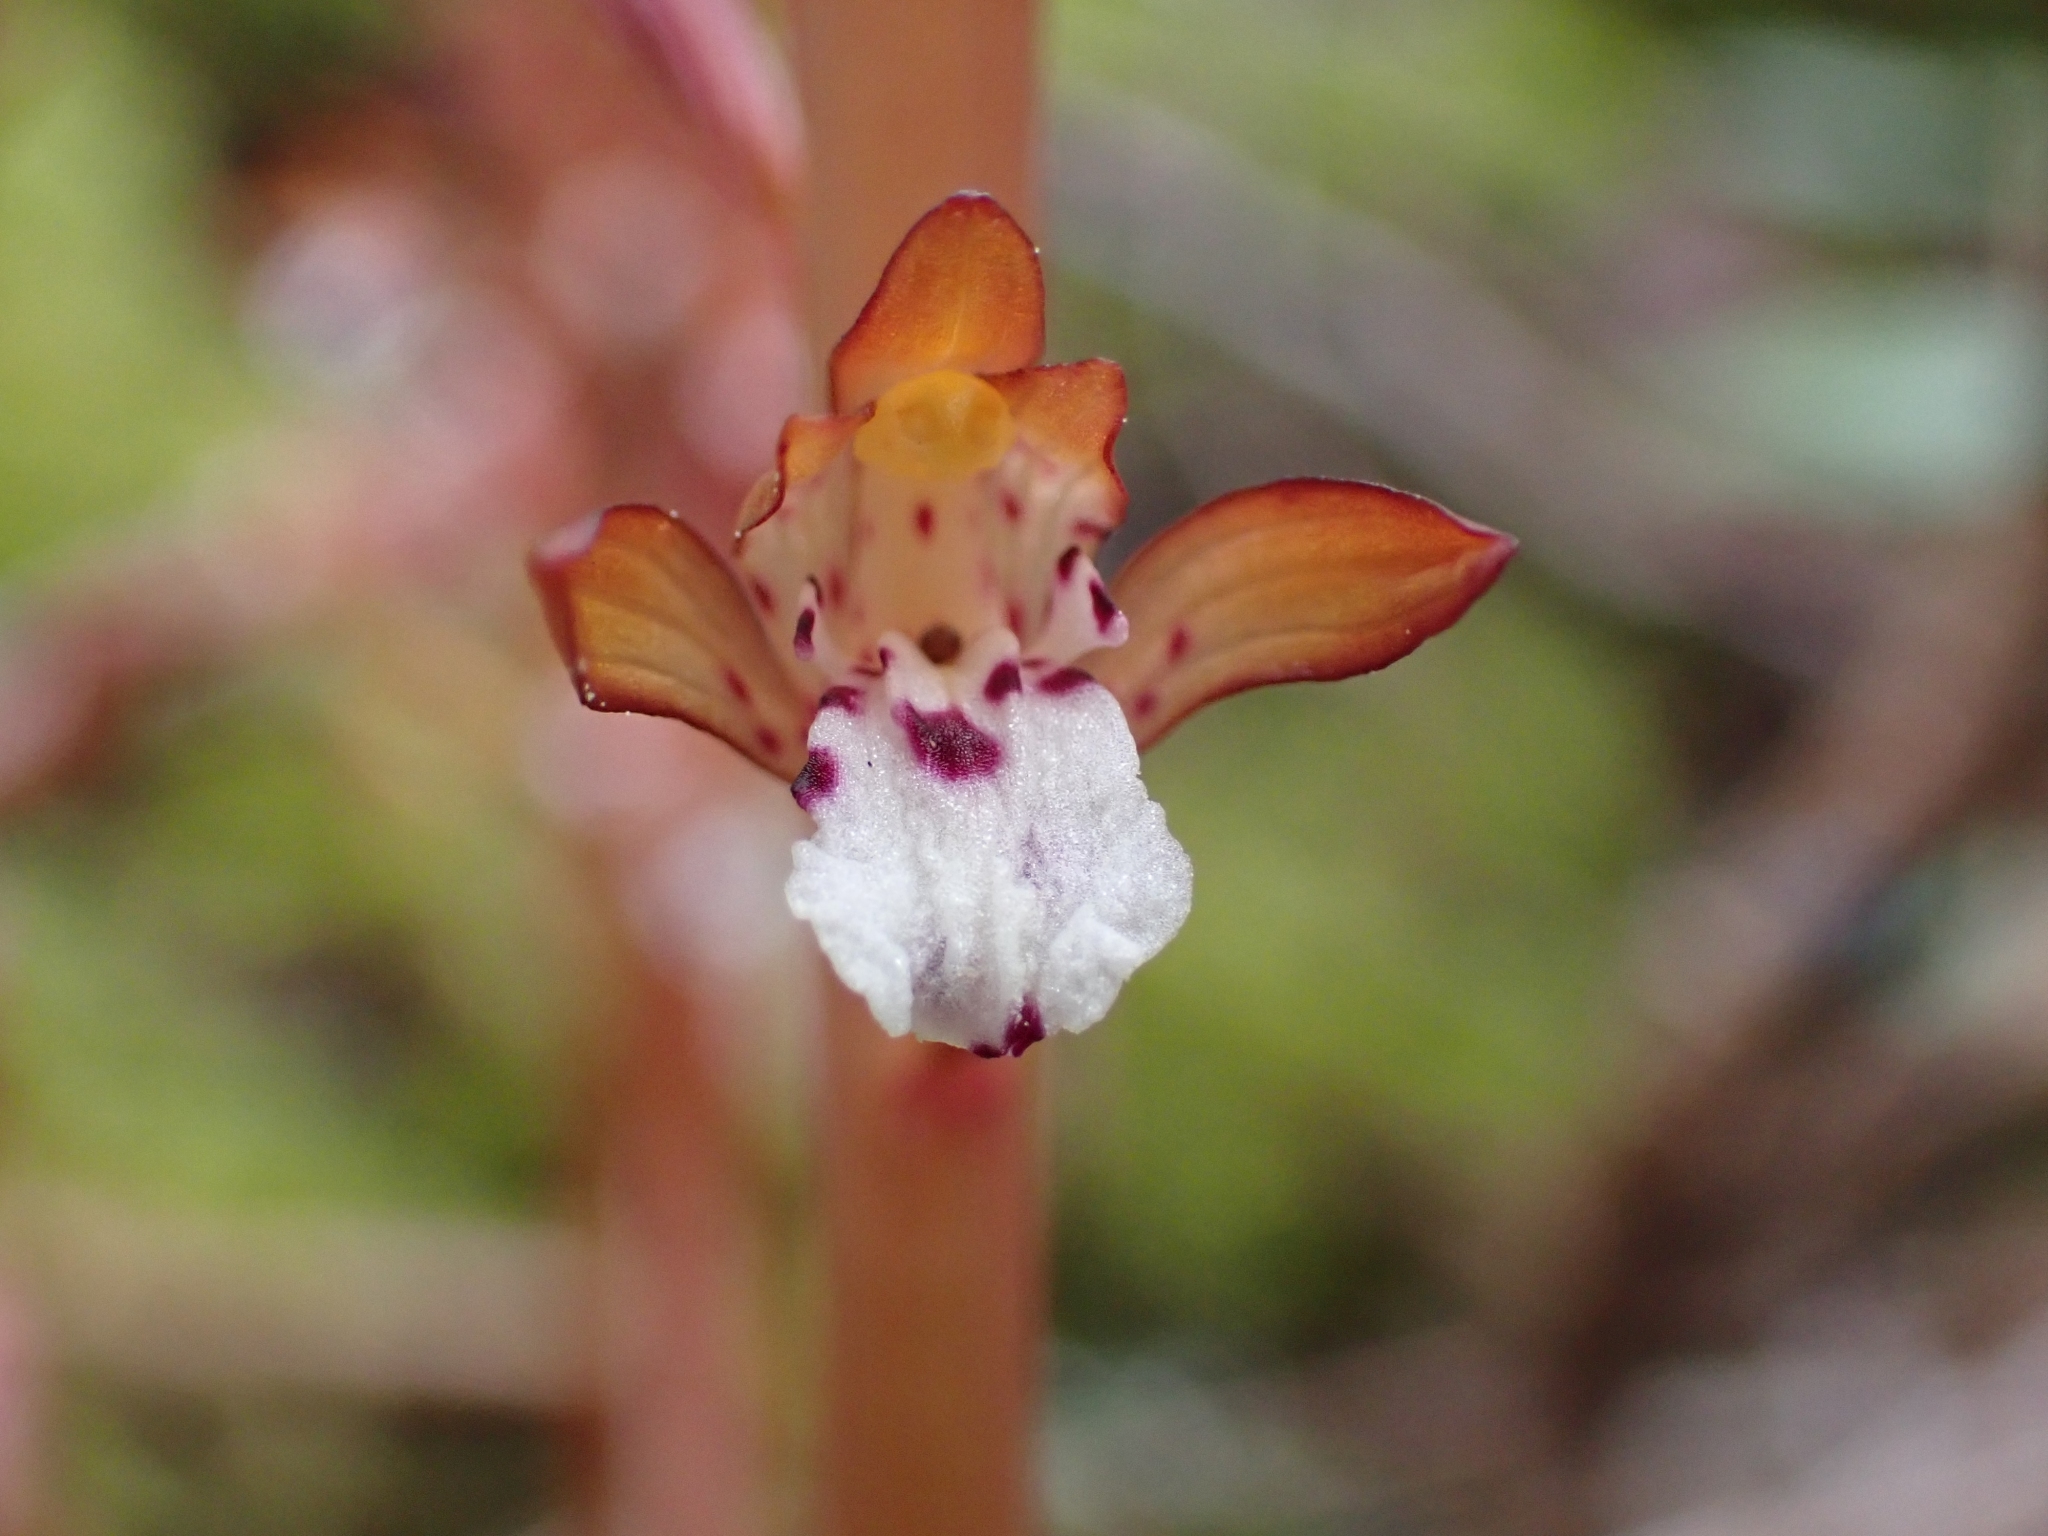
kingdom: Plantae
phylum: Tracheophyta
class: Liliopsida
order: Asparagales
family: Orchidaceae
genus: Corallorhiza
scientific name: Corallorhiza maculata
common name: Spotted coralroot
